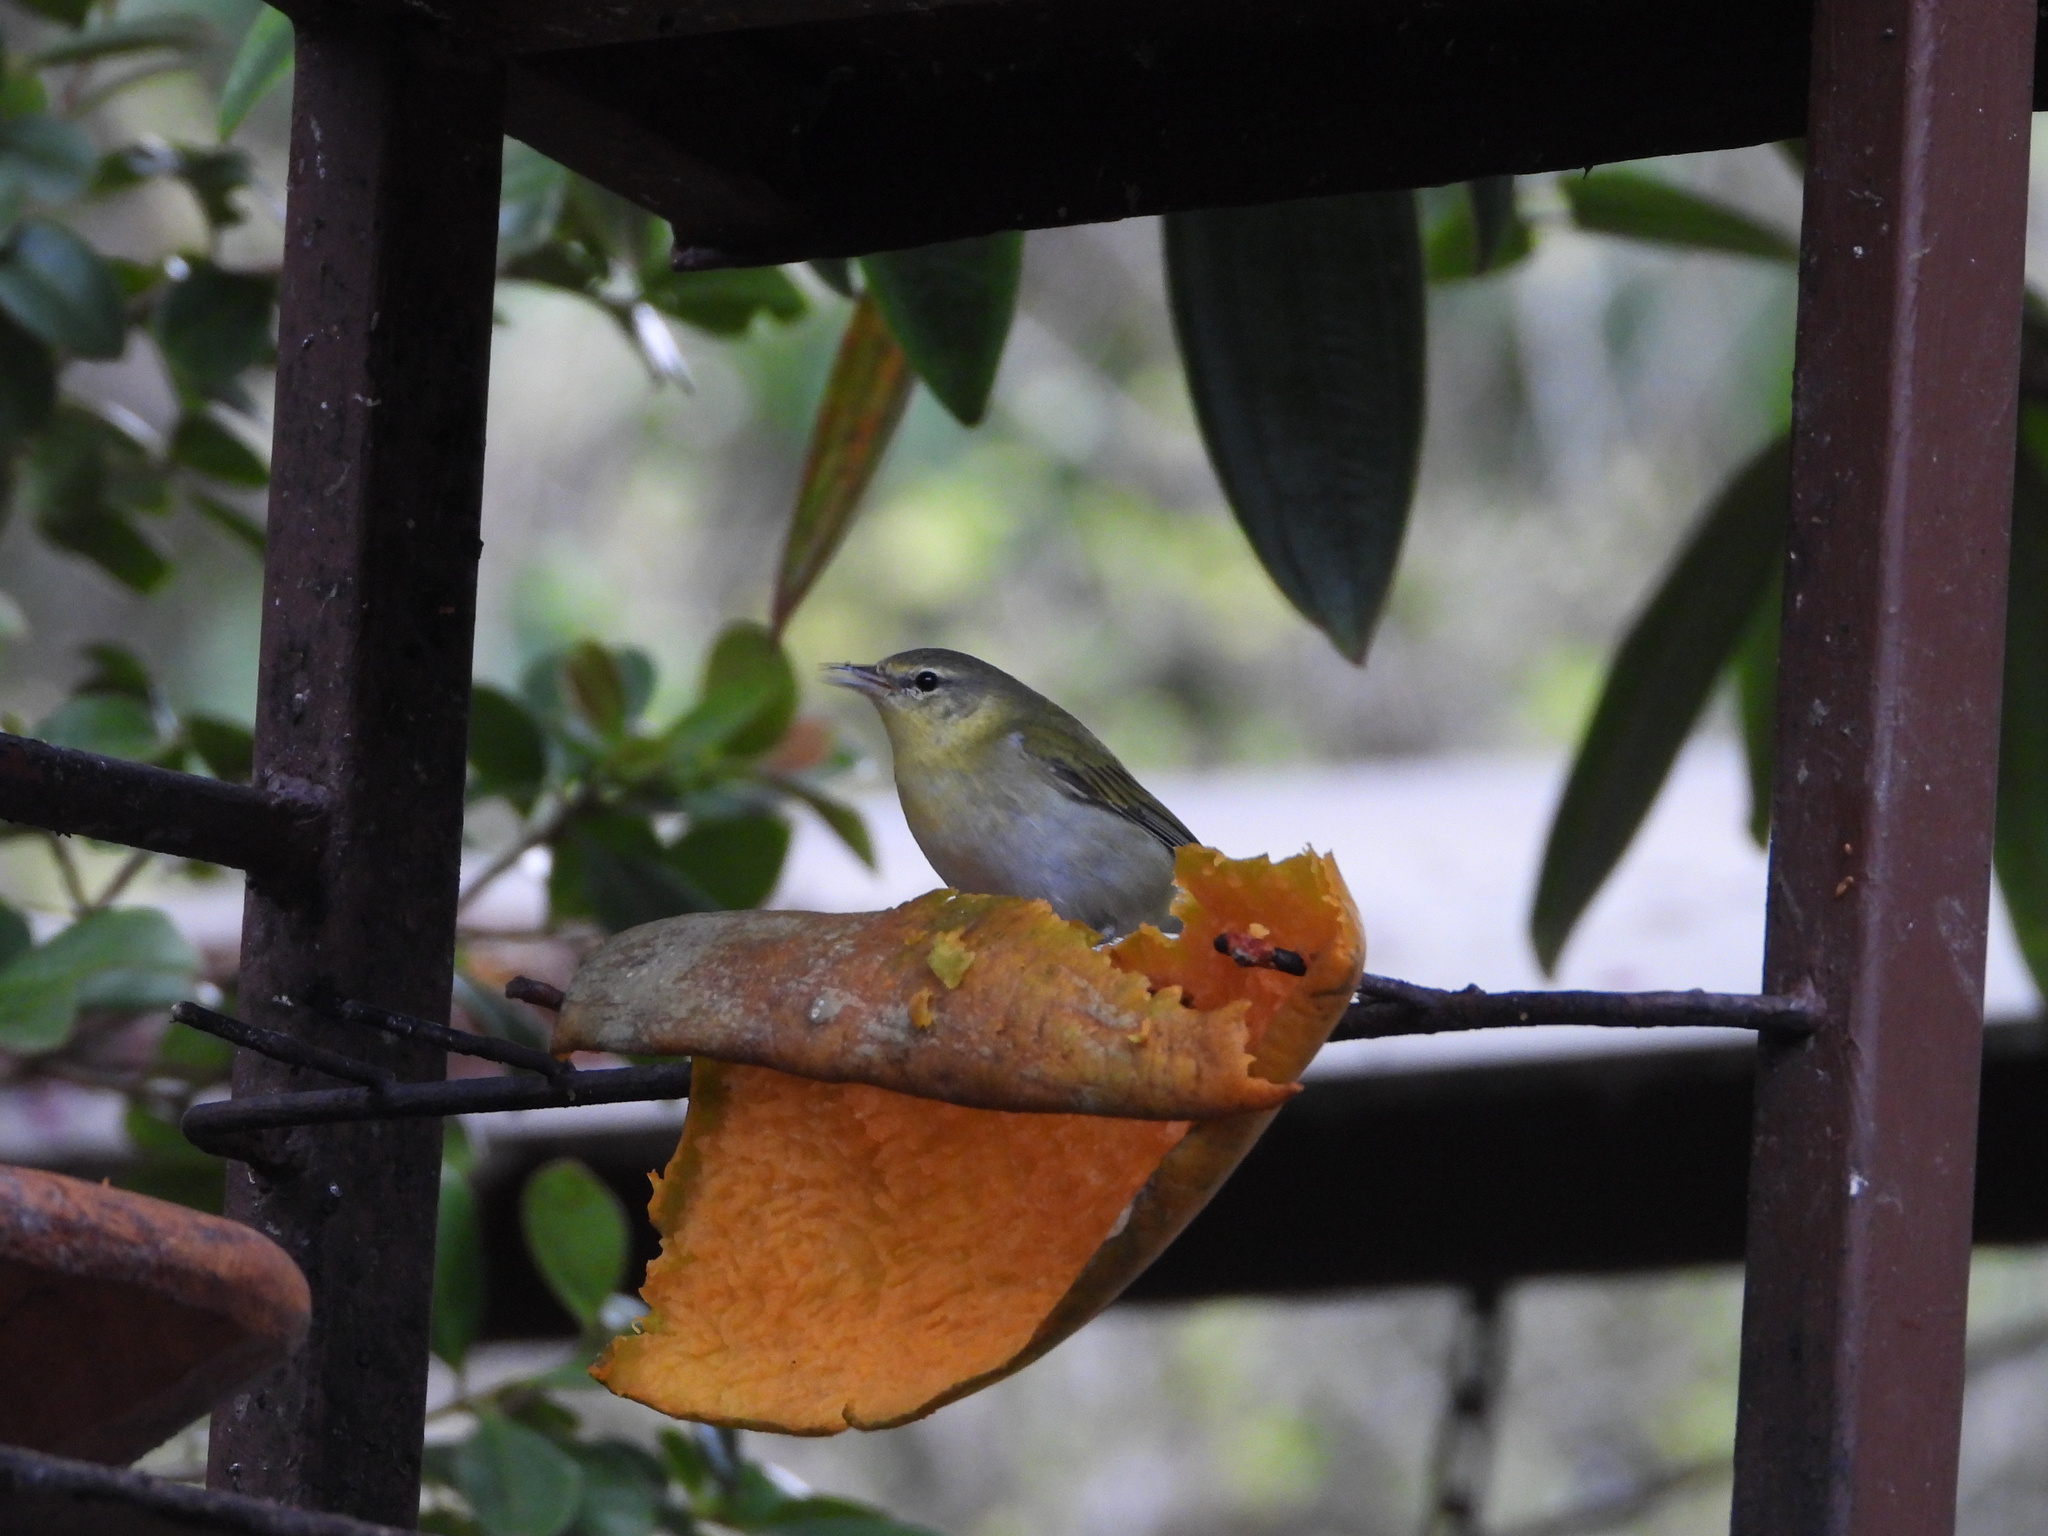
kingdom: Animalia
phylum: Chordata
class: Aves
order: Passeriformes
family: Parulidae
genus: Leiothlypis
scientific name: Leiothlypis peregrina
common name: Tennessee warbler
